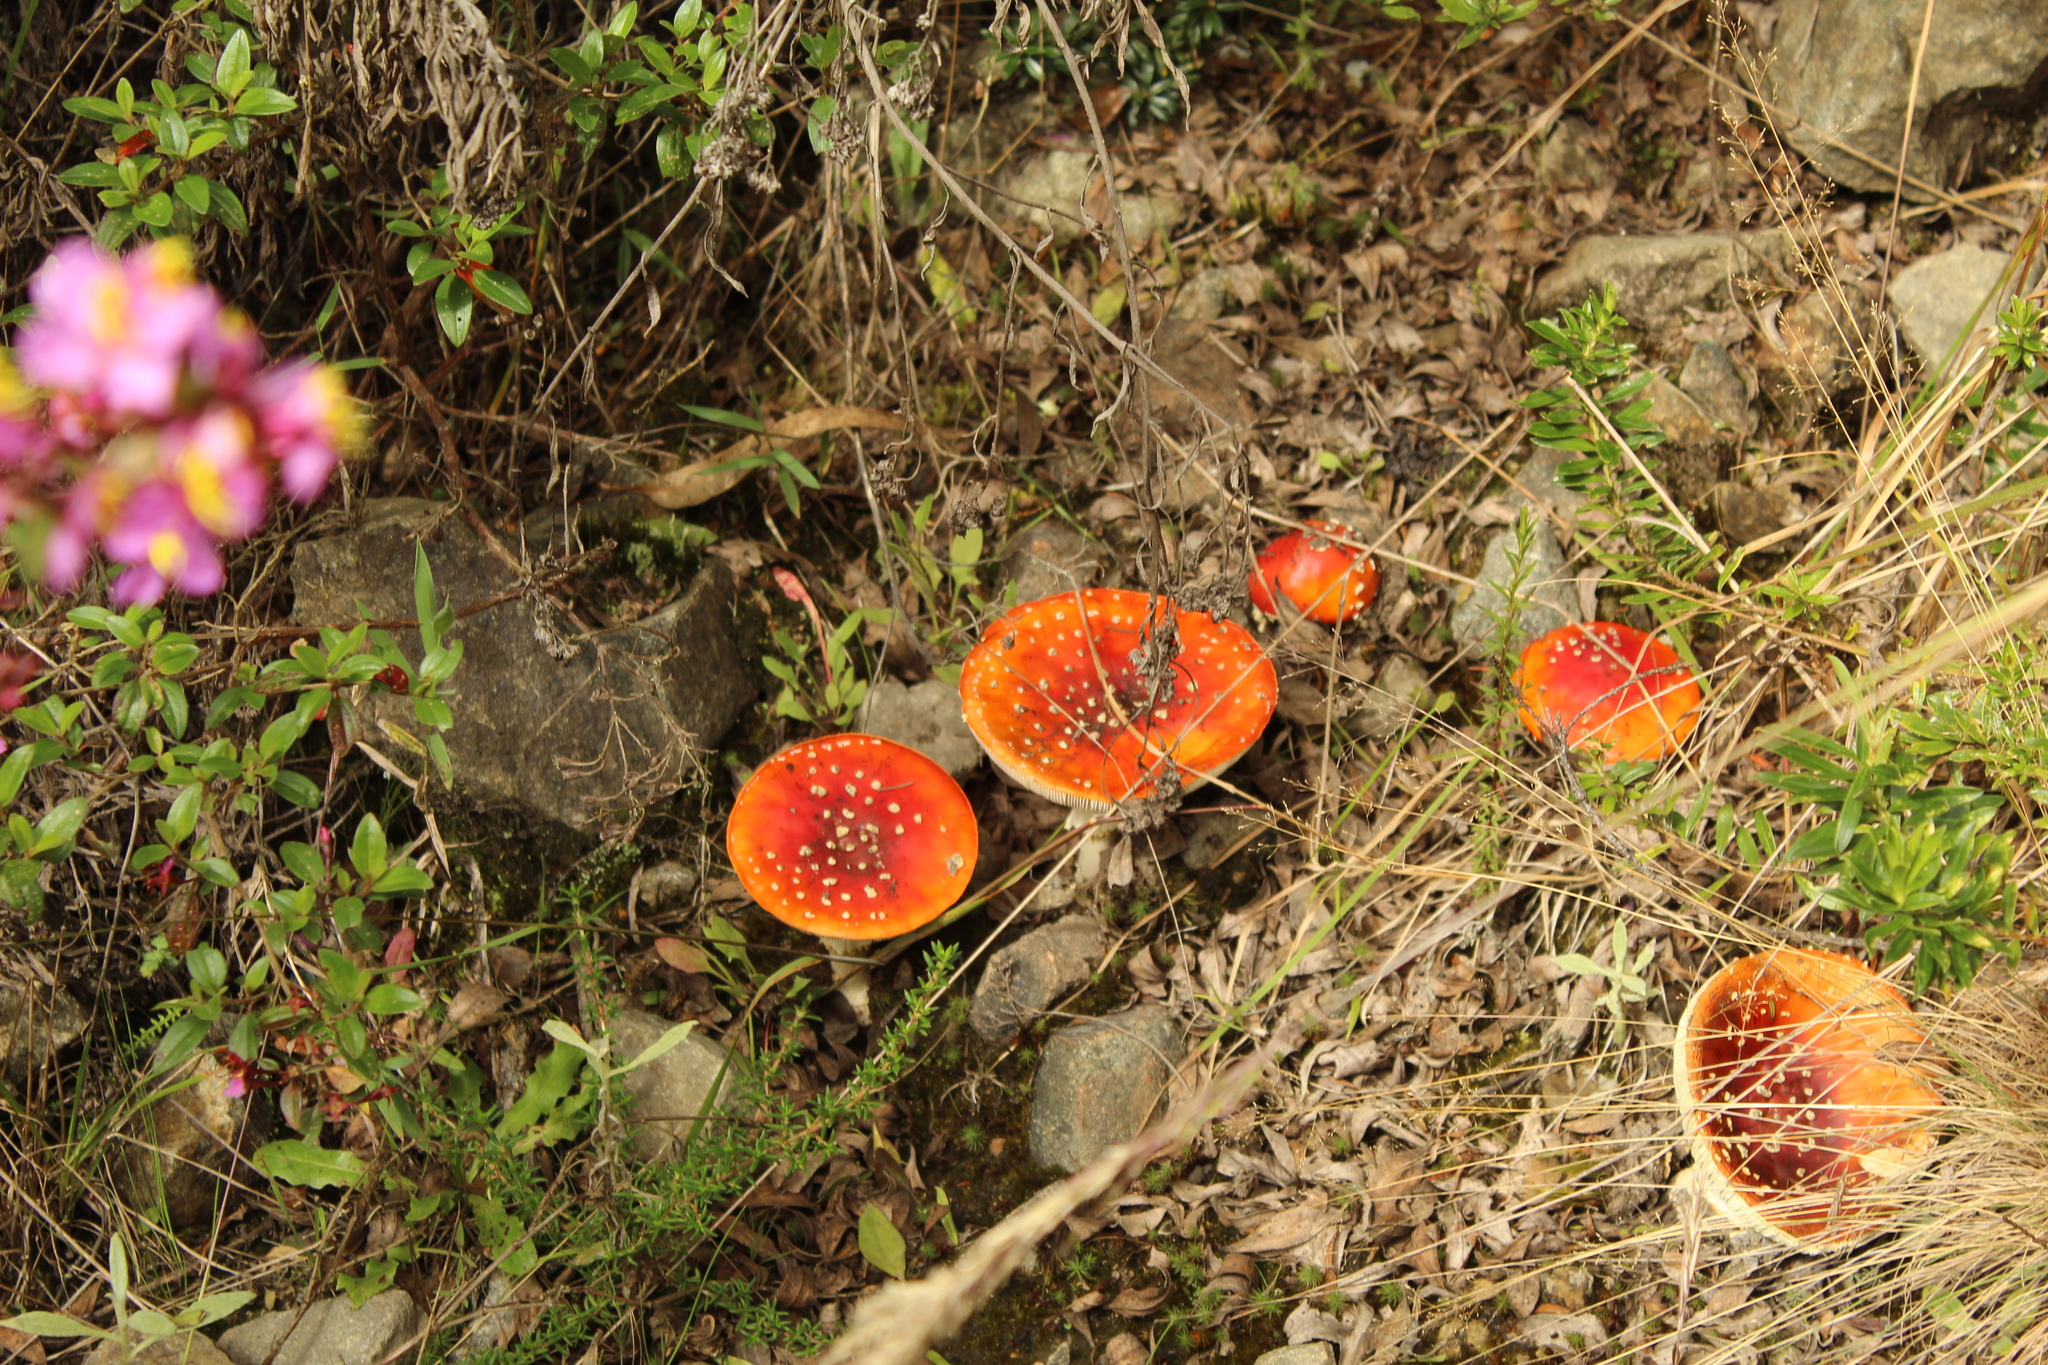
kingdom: Fungi
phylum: Basidiomycota
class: Agaricomycetes
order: Agaricales
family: Amanitaceae
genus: Amanita
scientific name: Amanita muscaria
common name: Fly agaric
